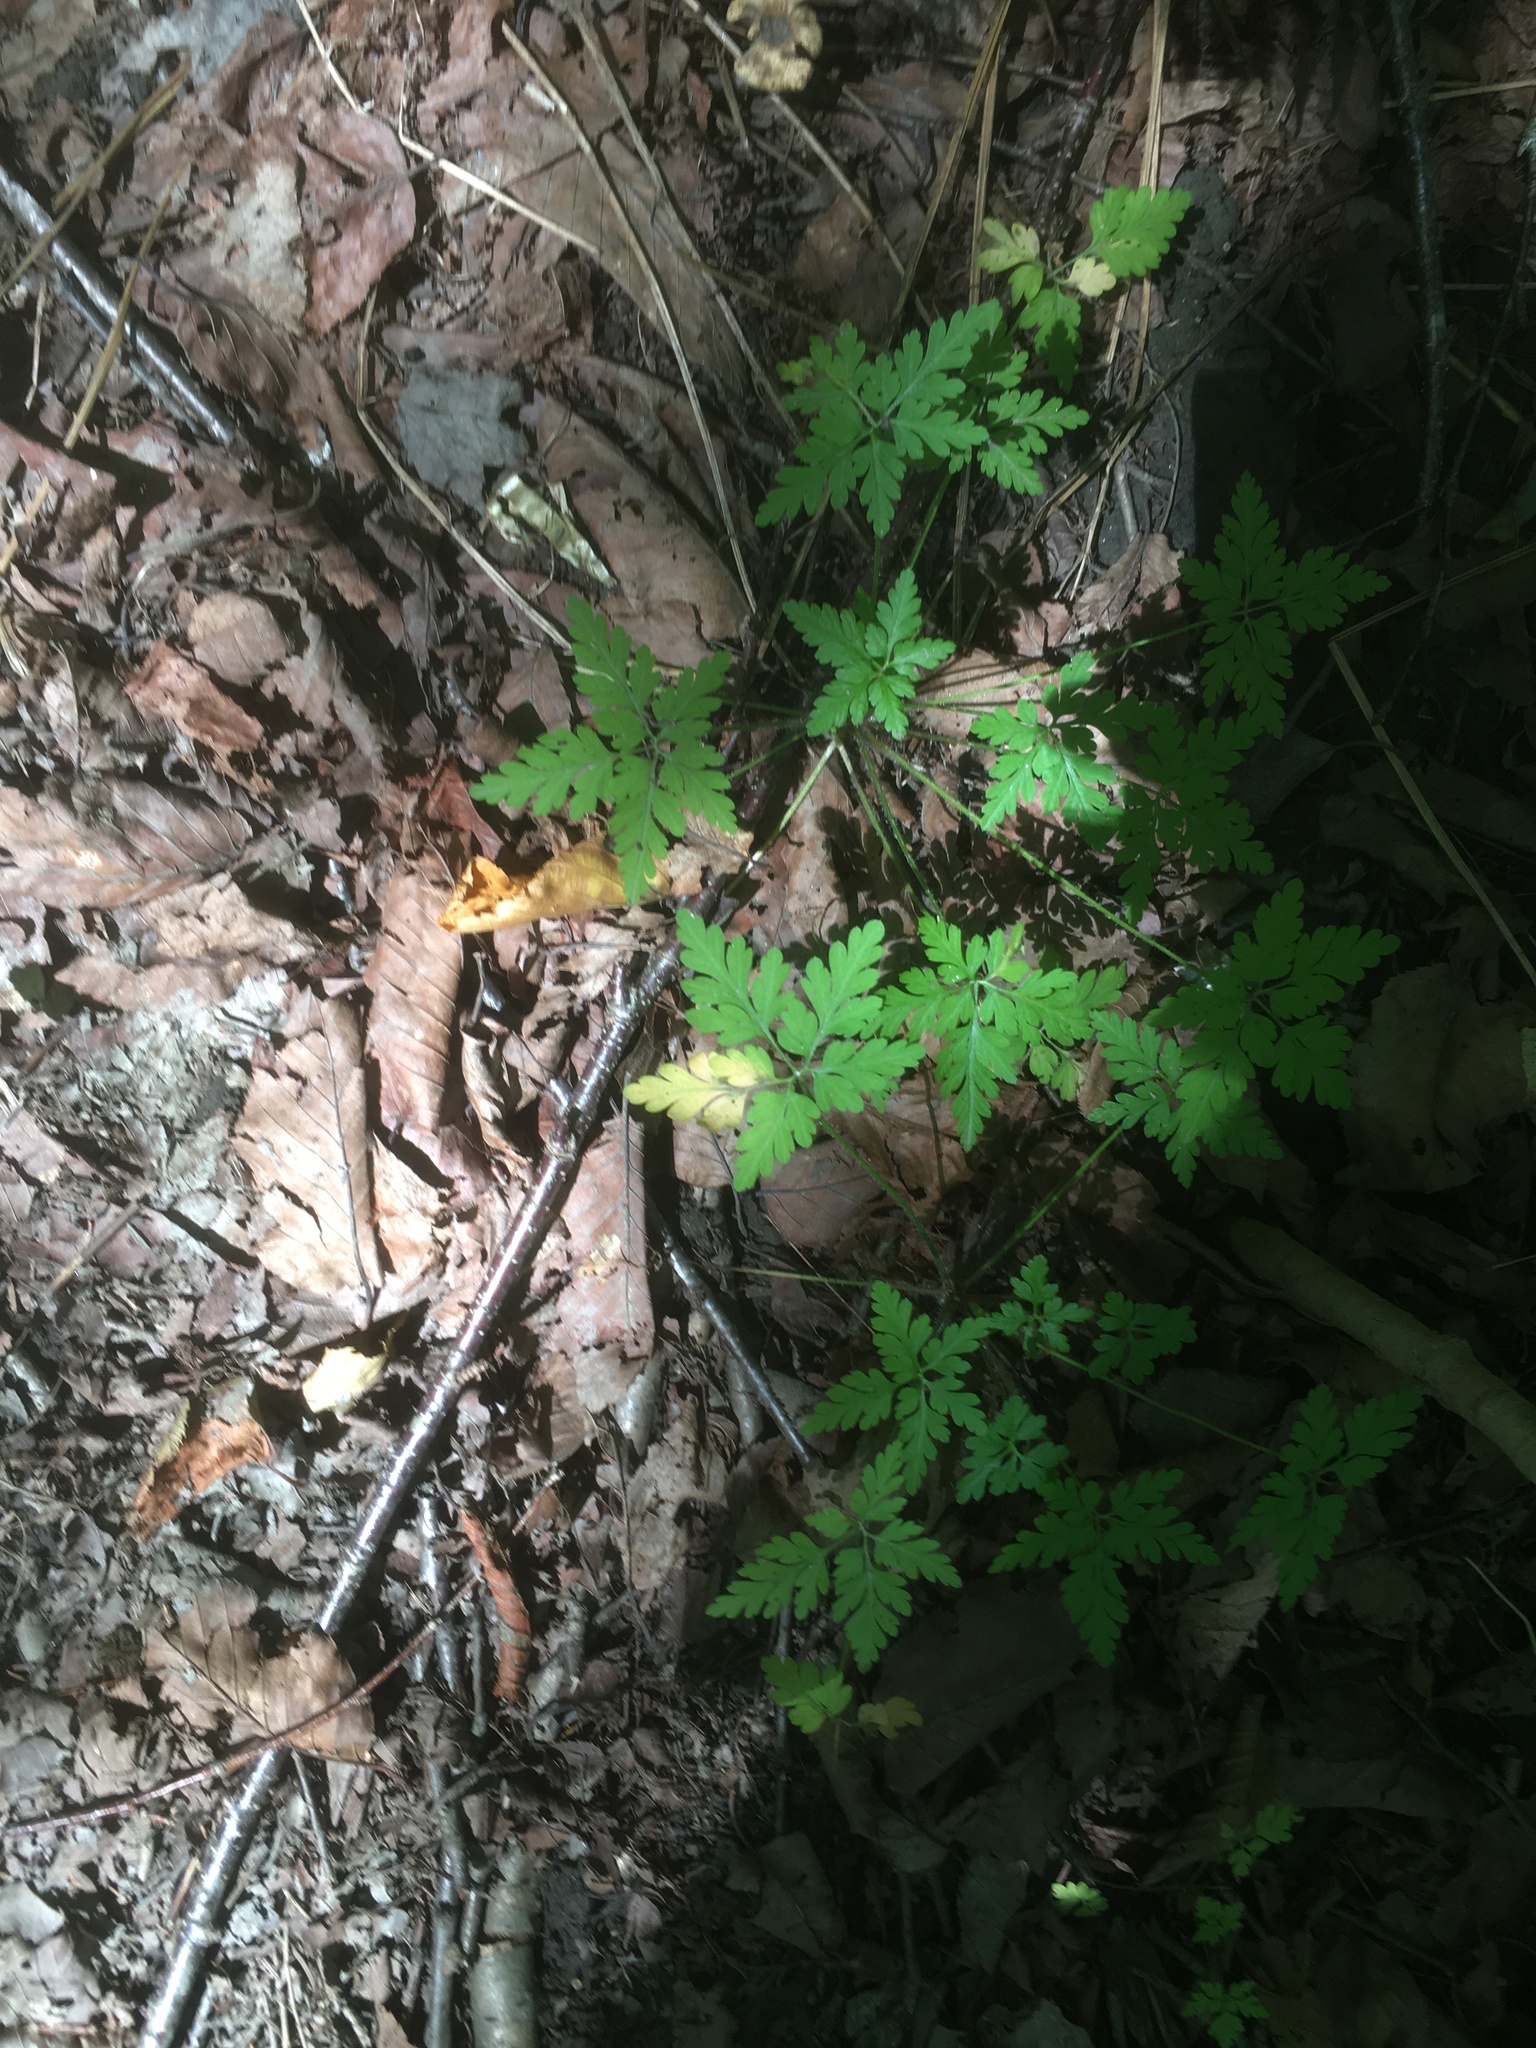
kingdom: Plantae
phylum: Tracheophyta
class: Magnoliopsida
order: Geraniales
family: Geraniaceae
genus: Geranium
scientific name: Geranium robertianum
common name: Herb-robert
